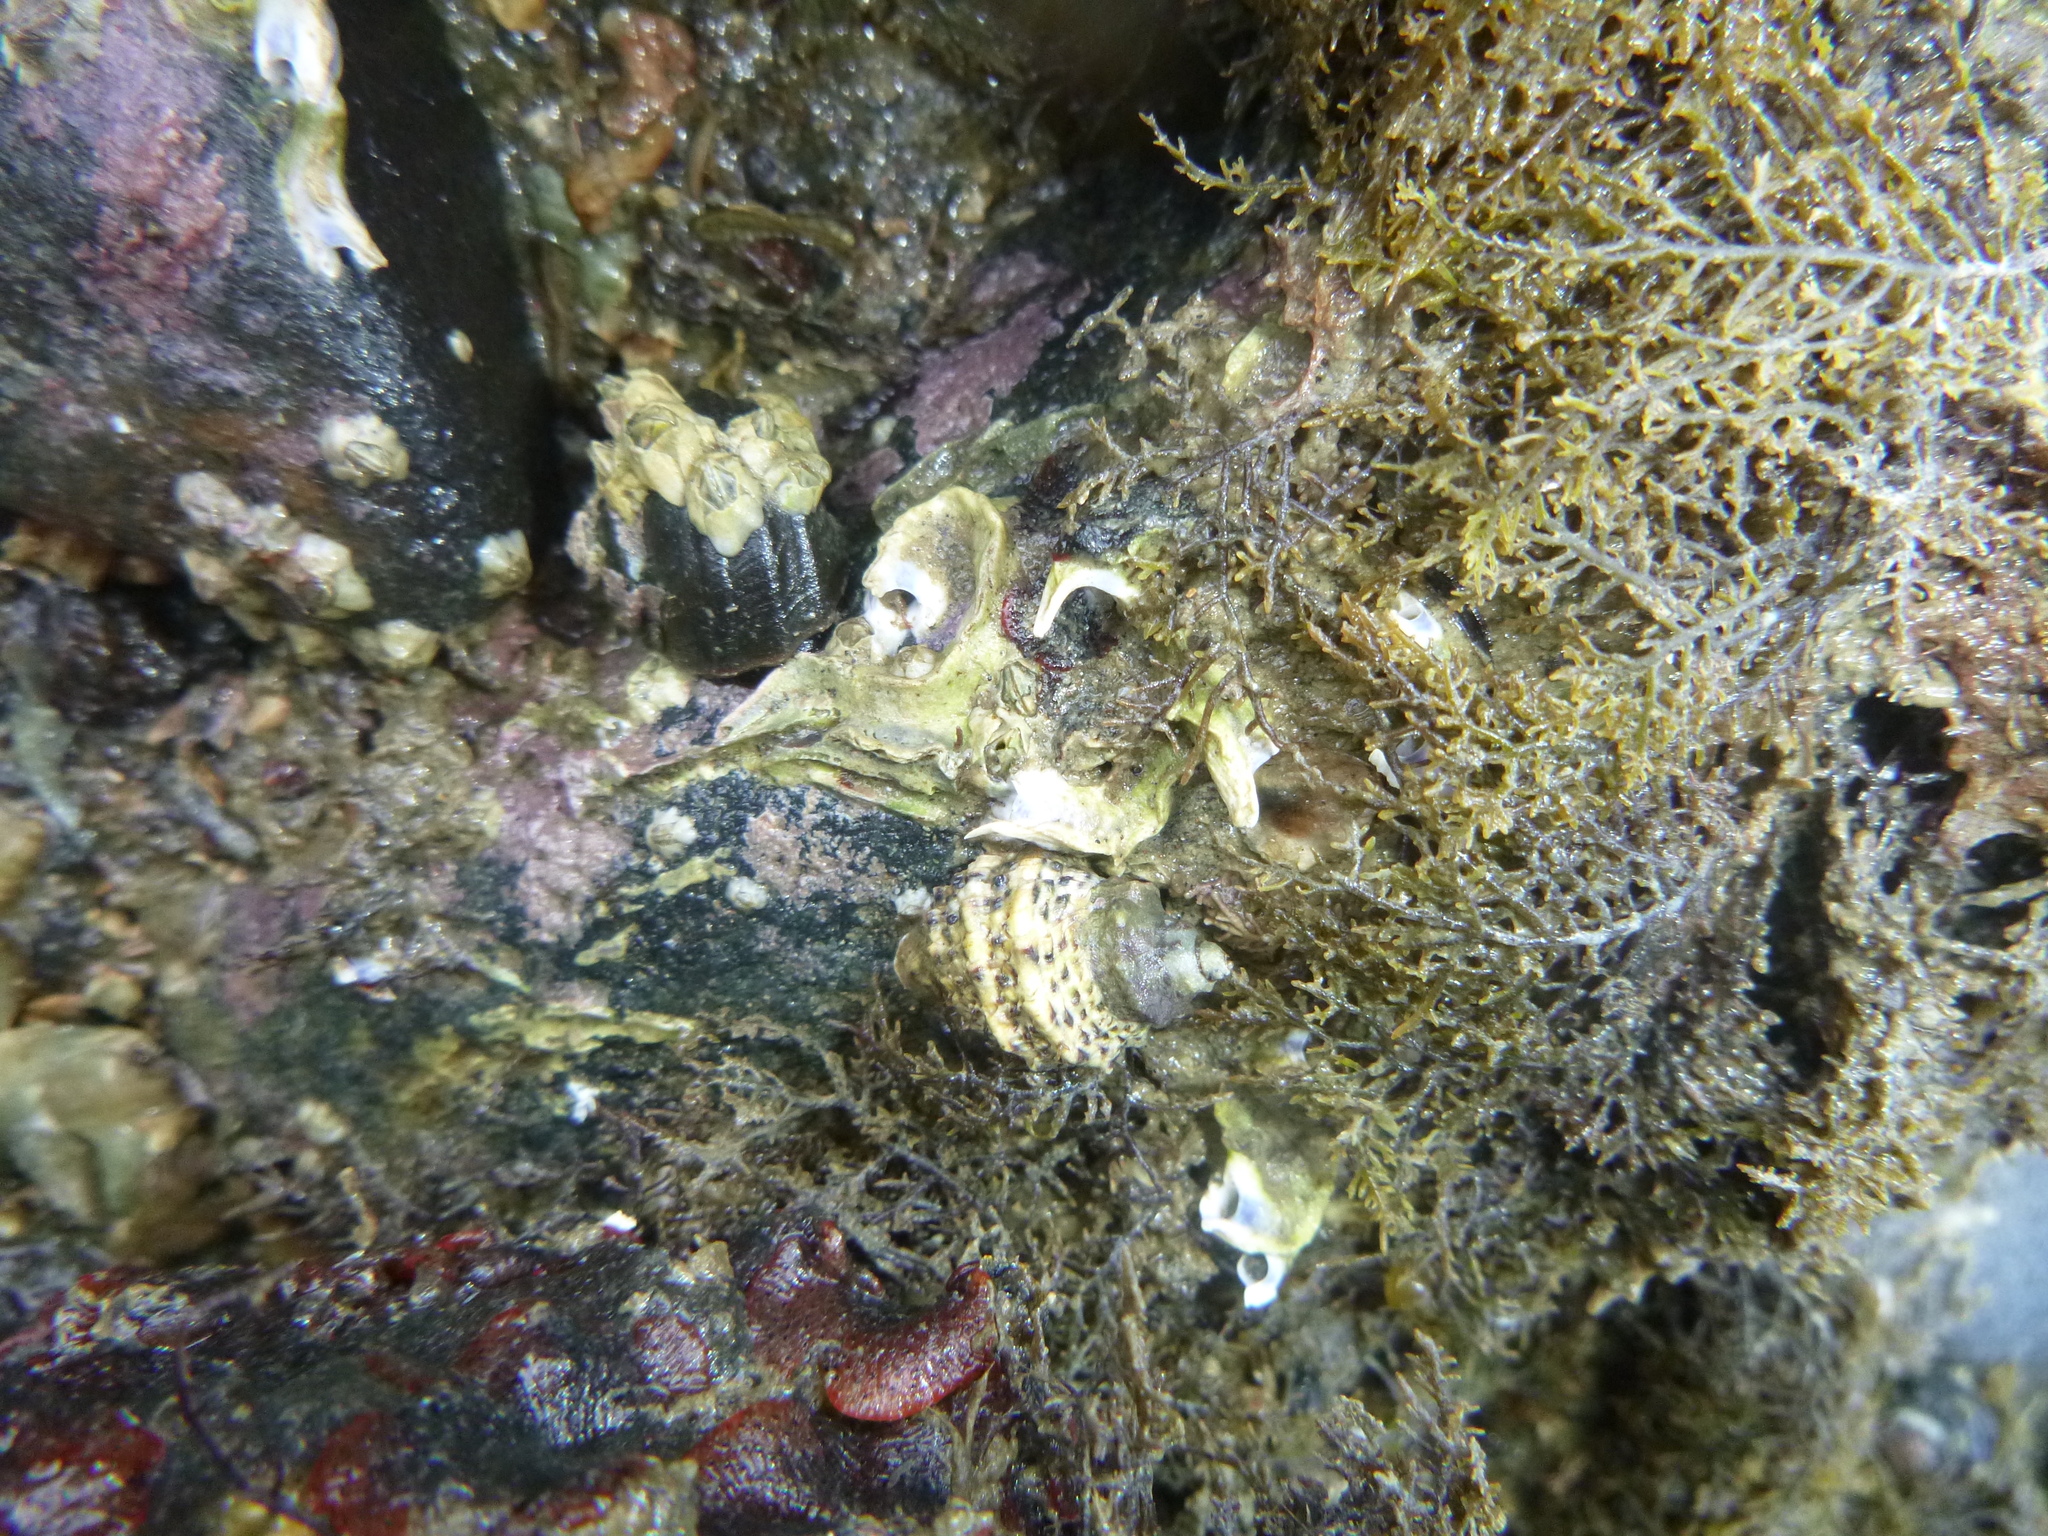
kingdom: Animalia
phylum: Mollusca
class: Gastropoda
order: Neogastropoda
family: Muricidae
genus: Haustrum
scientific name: Haustrum scobina
